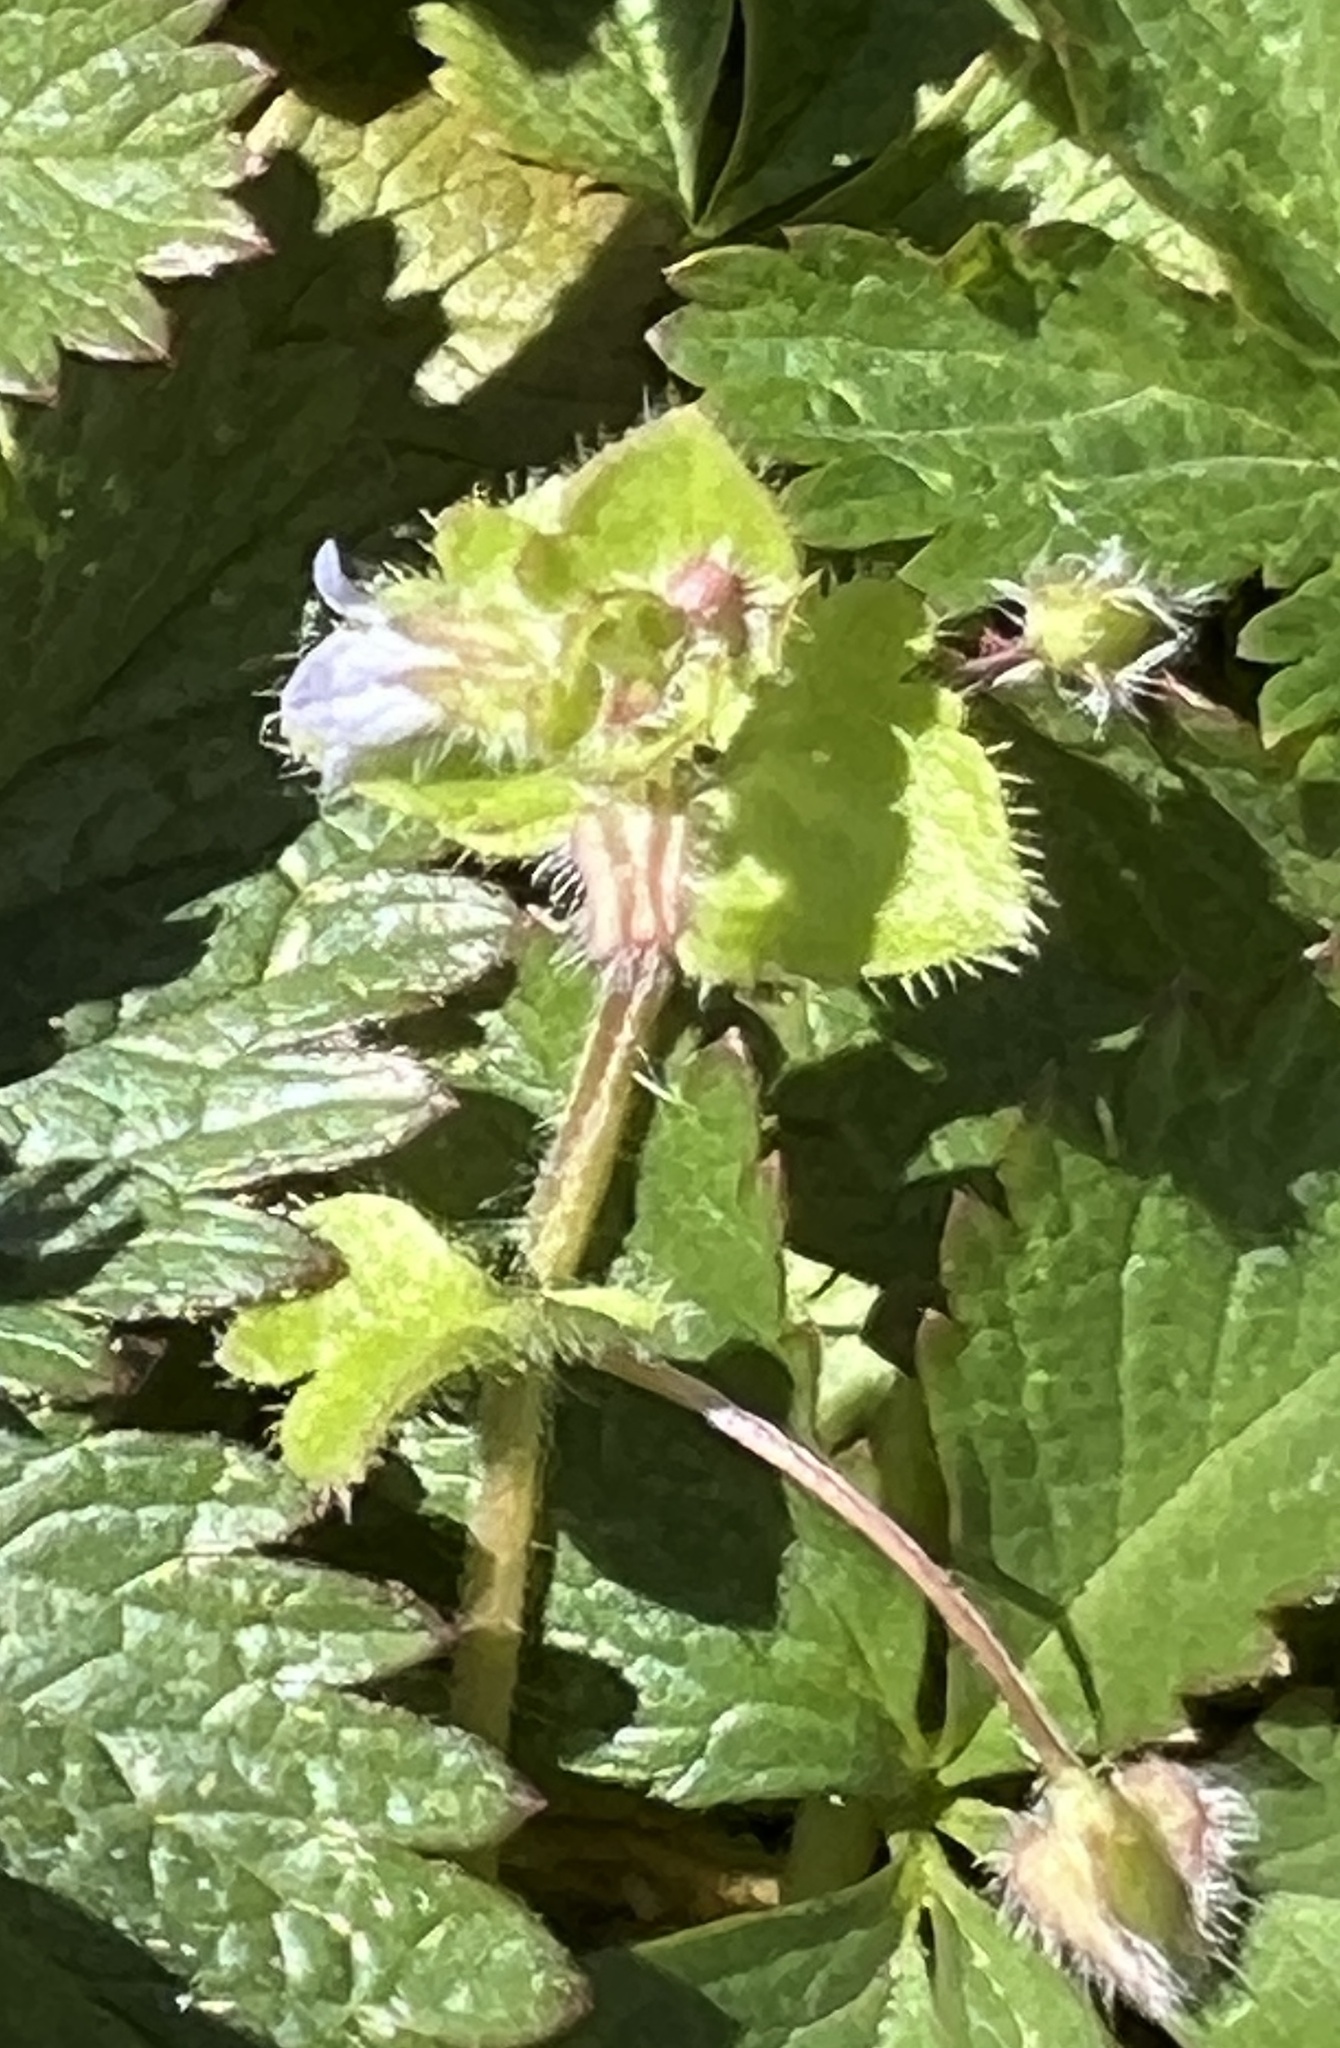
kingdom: Plantae
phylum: Tracheophyta
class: Magnoliopsida
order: Lamiales
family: Plantaginaceae
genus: Veronica
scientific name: Veronica sublobata
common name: False ivy-leaved speedwell
